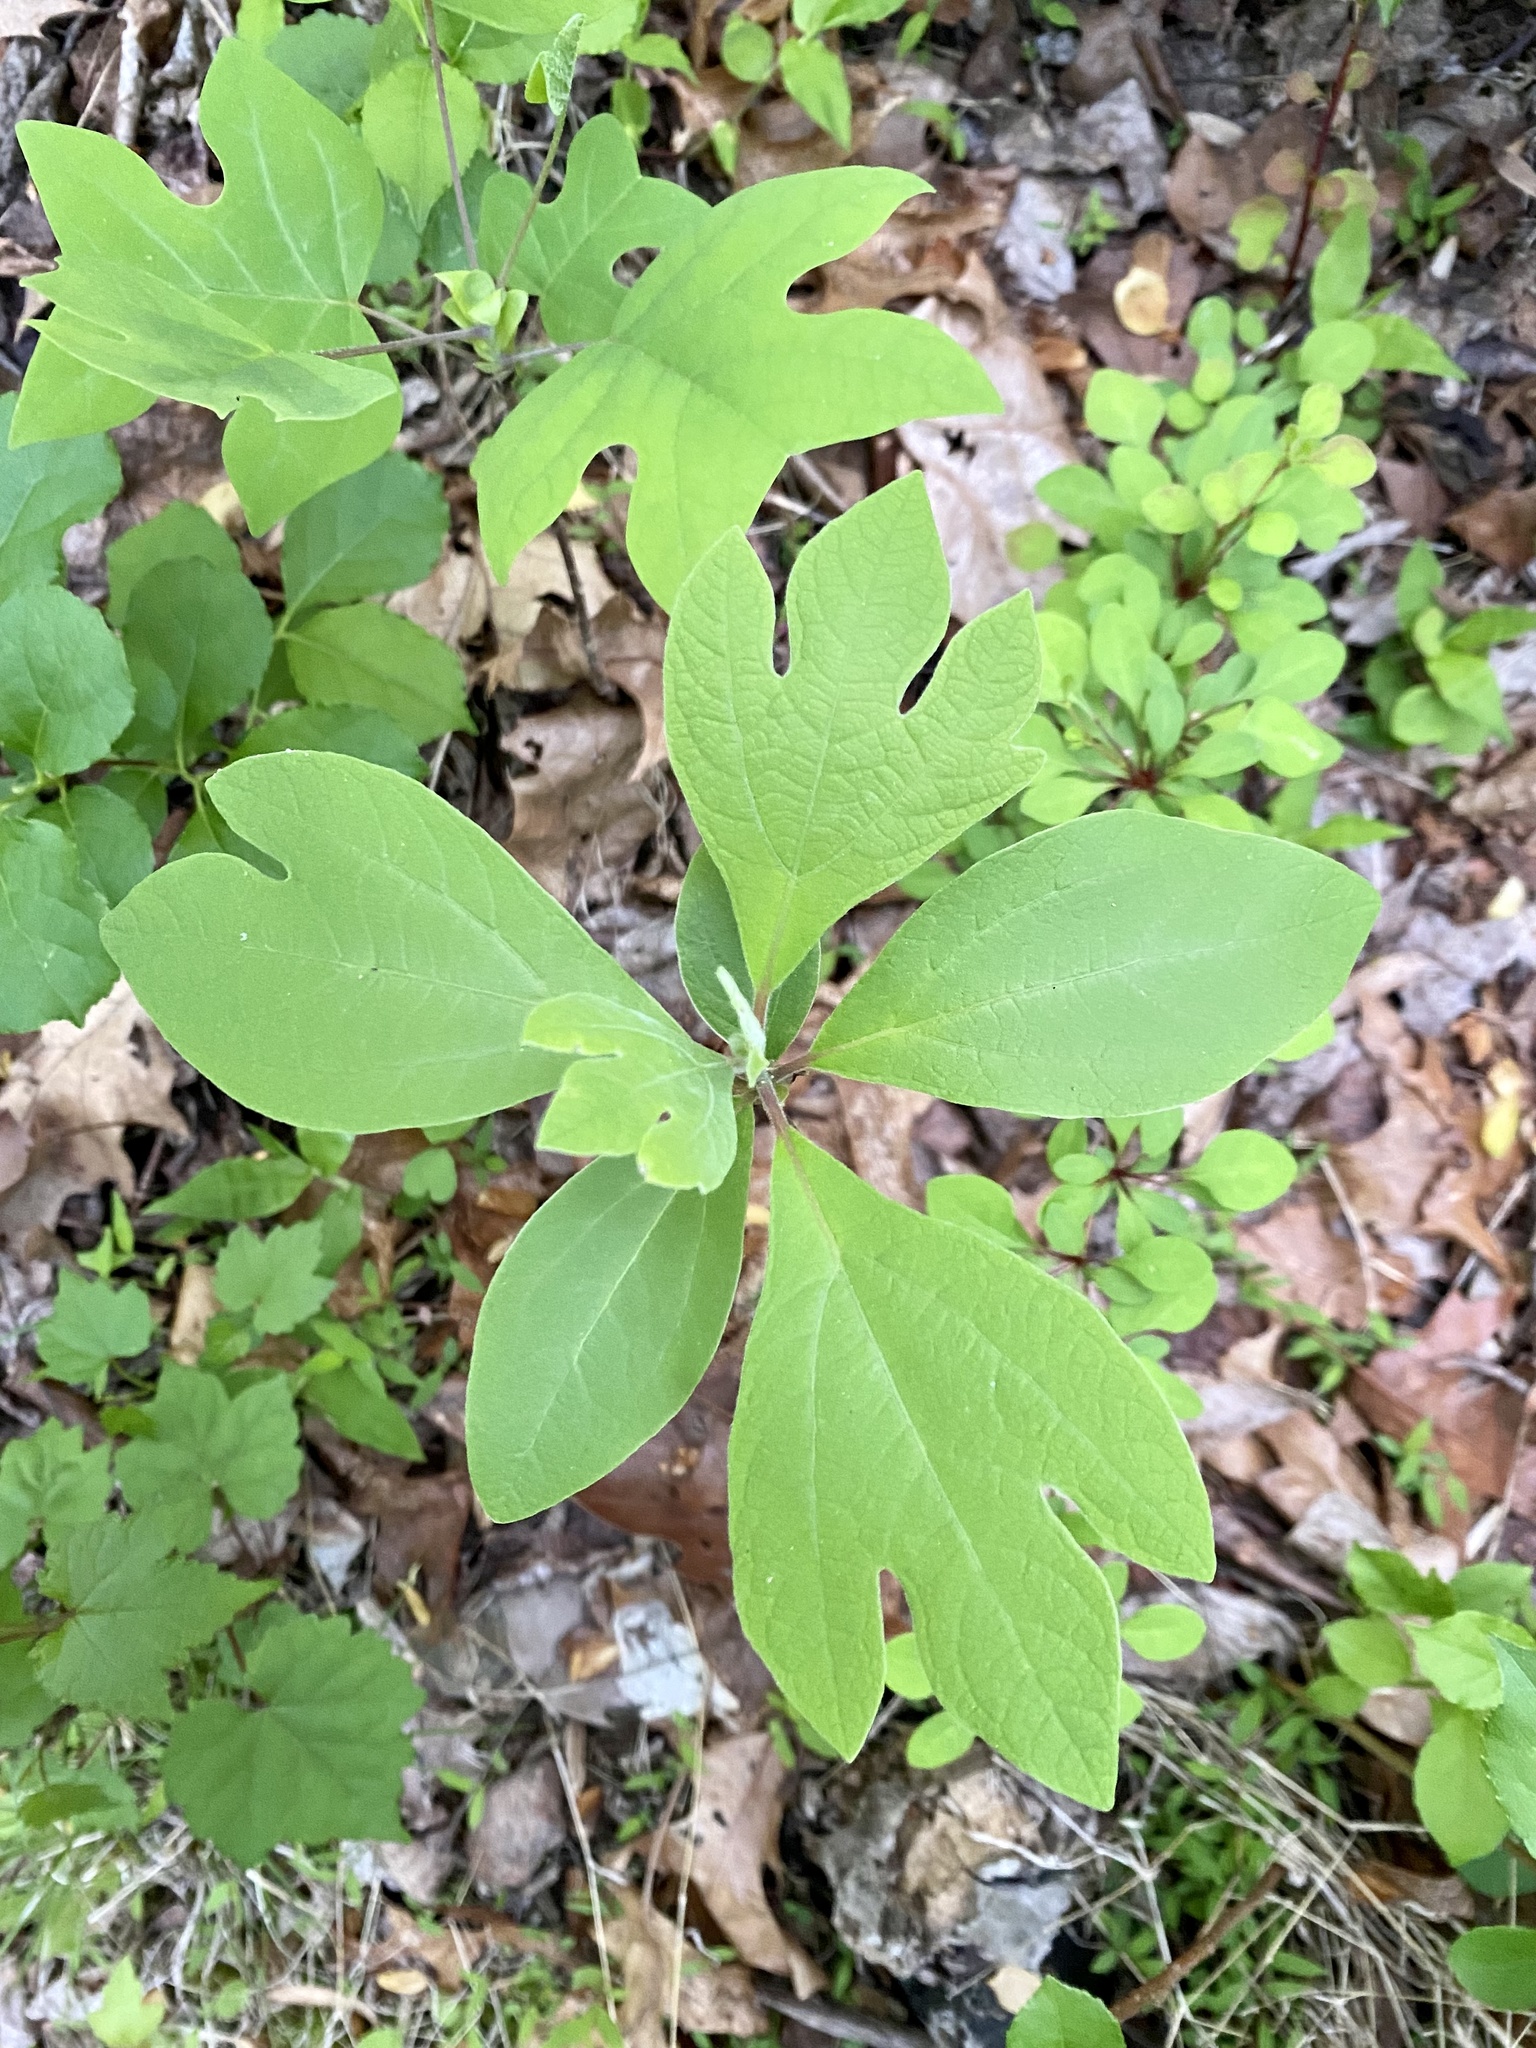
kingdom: Plantae
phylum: Tracheophyta
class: Magnoliopsida
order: Laurales
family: Lauraceae
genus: Sassafras
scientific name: Sassafras albidum
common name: Sassafras
